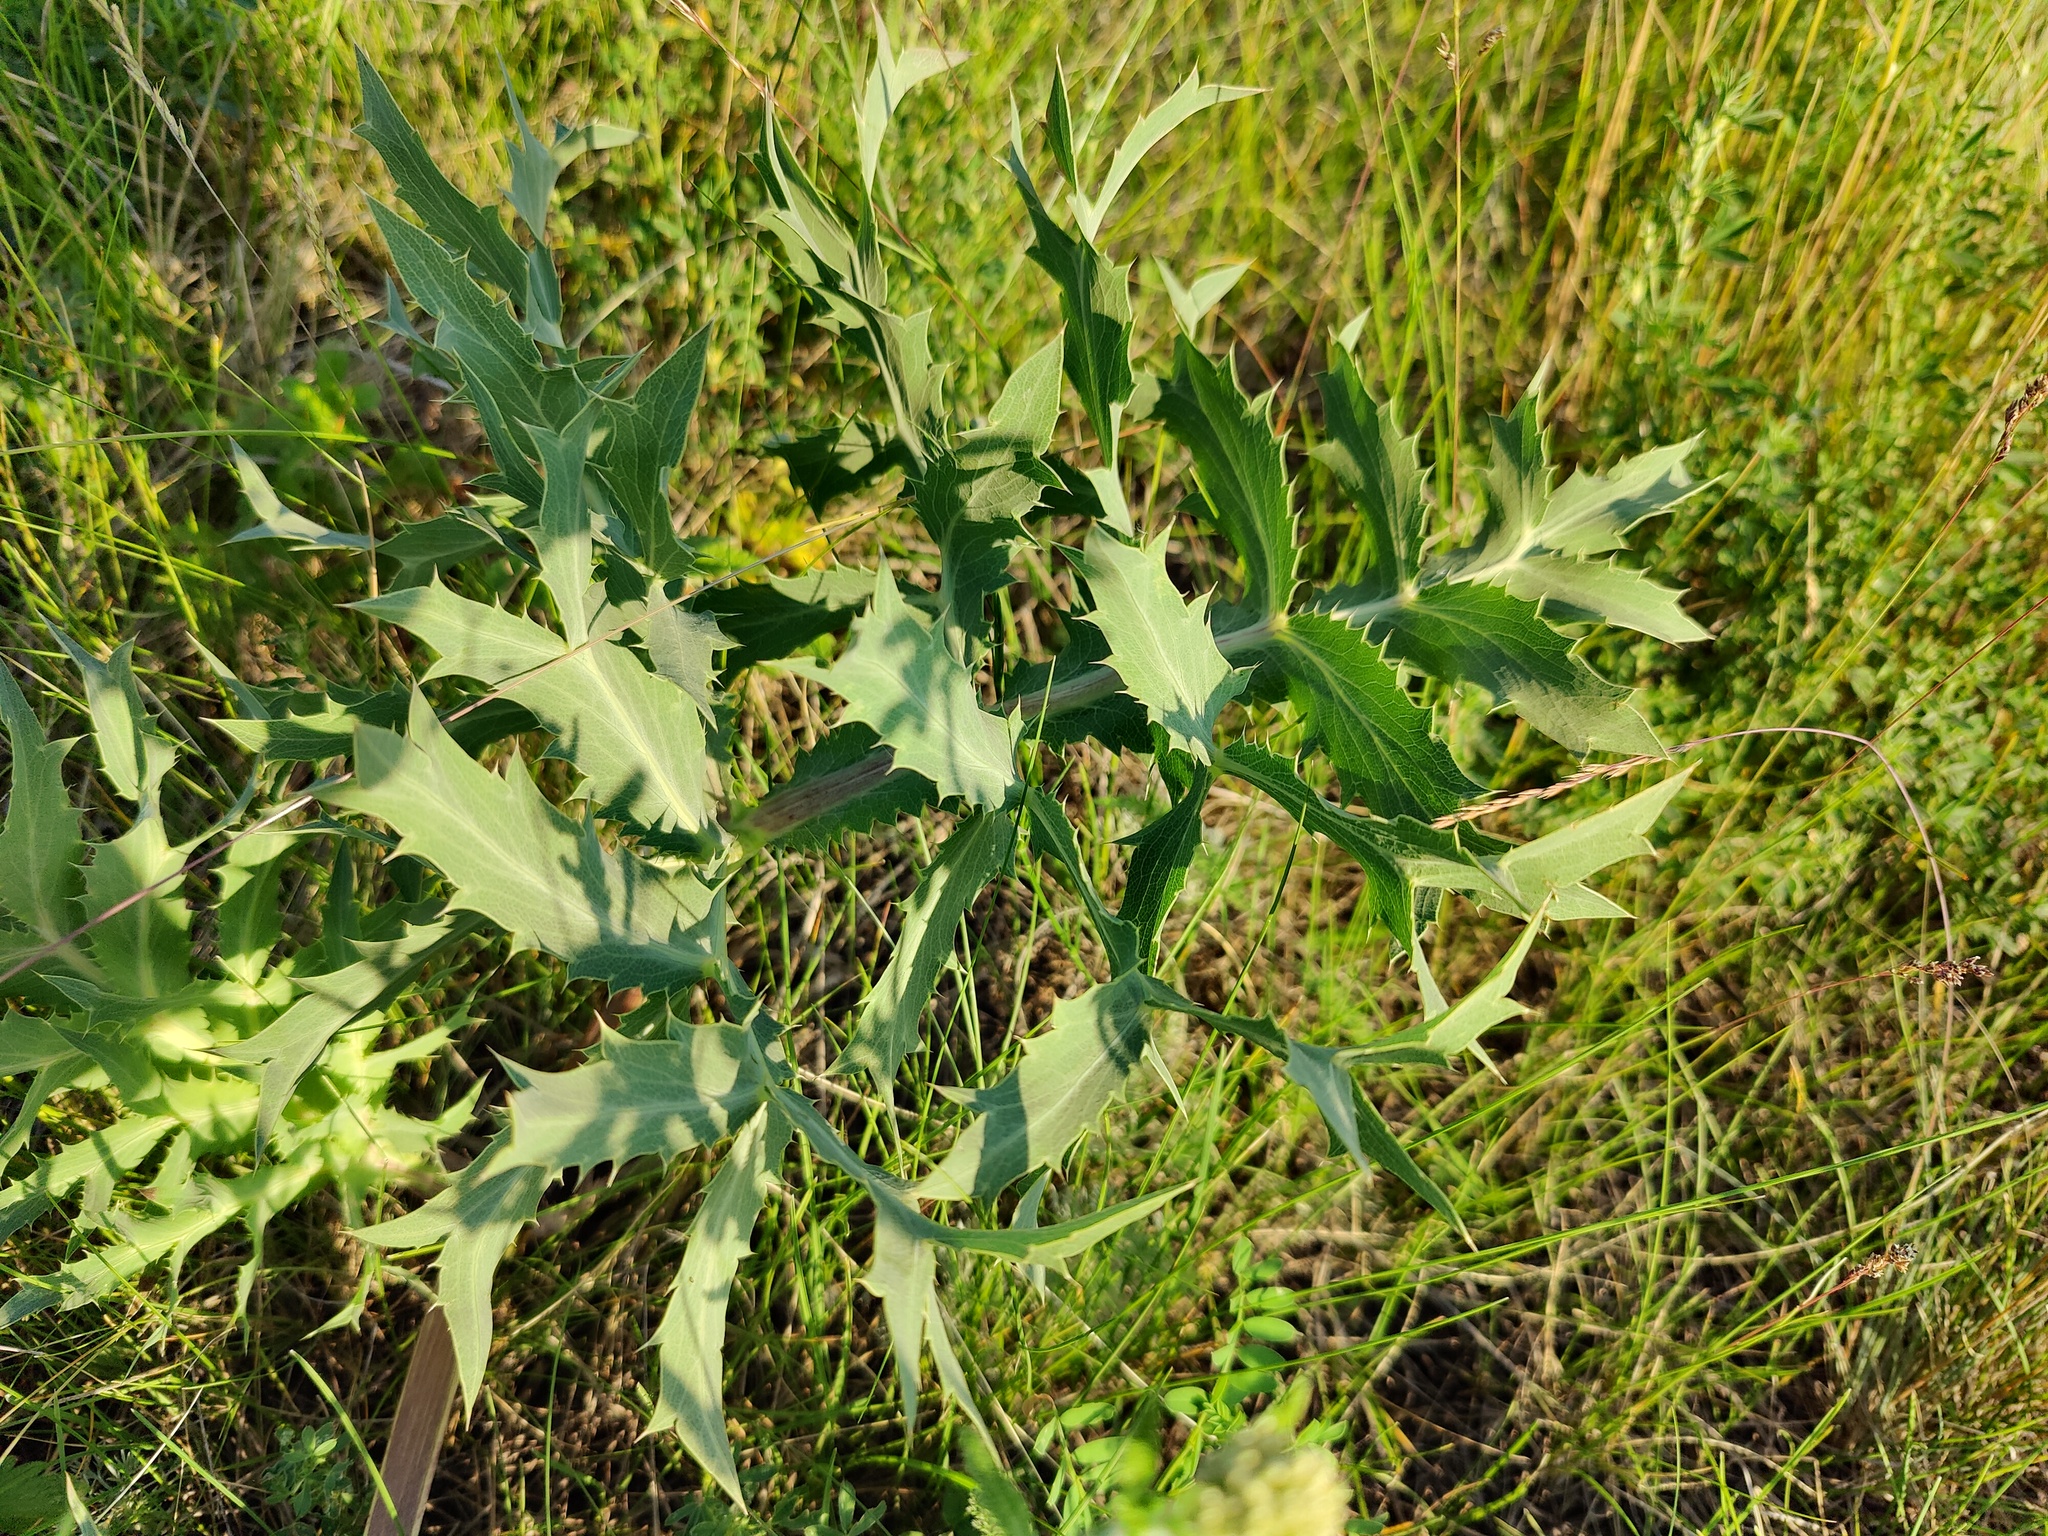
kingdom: Plantae
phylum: Tracheophyta
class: Magnoliopsida
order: Apiales
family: Apiaceae
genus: Eryngium
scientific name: Eryngium campestre
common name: Field eryngo
